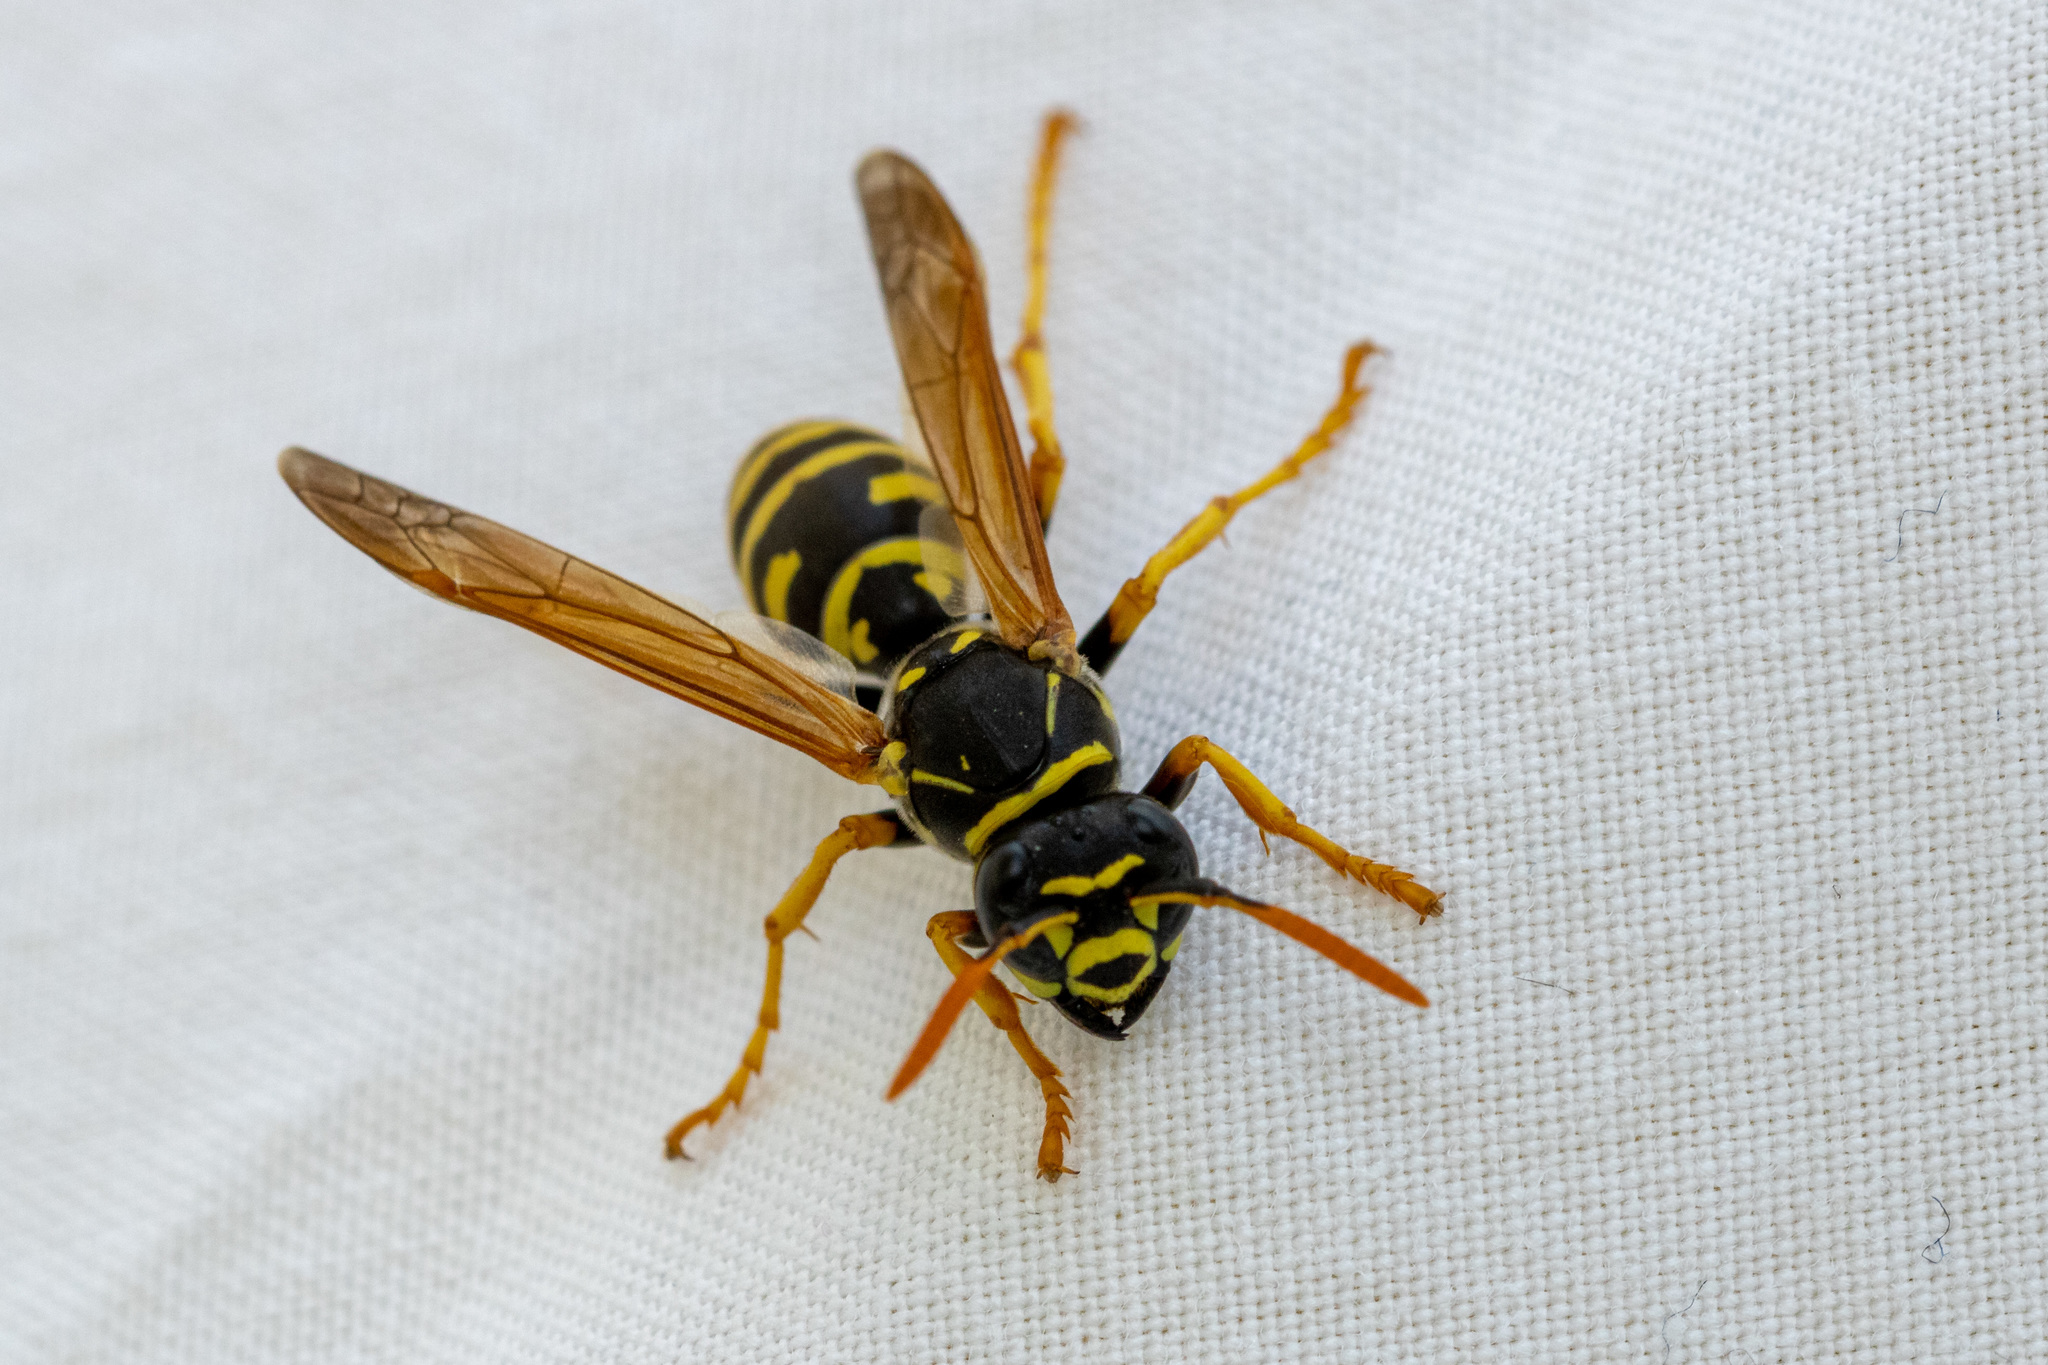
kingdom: Animalia
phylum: Arthropoda
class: Insecta
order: Hymenoptera
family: Eumenidae
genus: Polistes
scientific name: Polistes dominula
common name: Paper wasp
